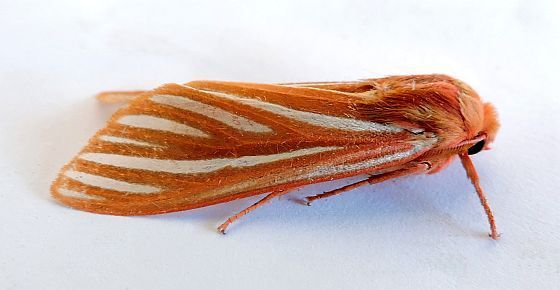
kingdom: Animalia
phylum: Arthropoda
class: Insecta
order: Lepidoptera
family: Erebidae
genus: Hemihyalea
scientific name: Hemihyalea ambigua
